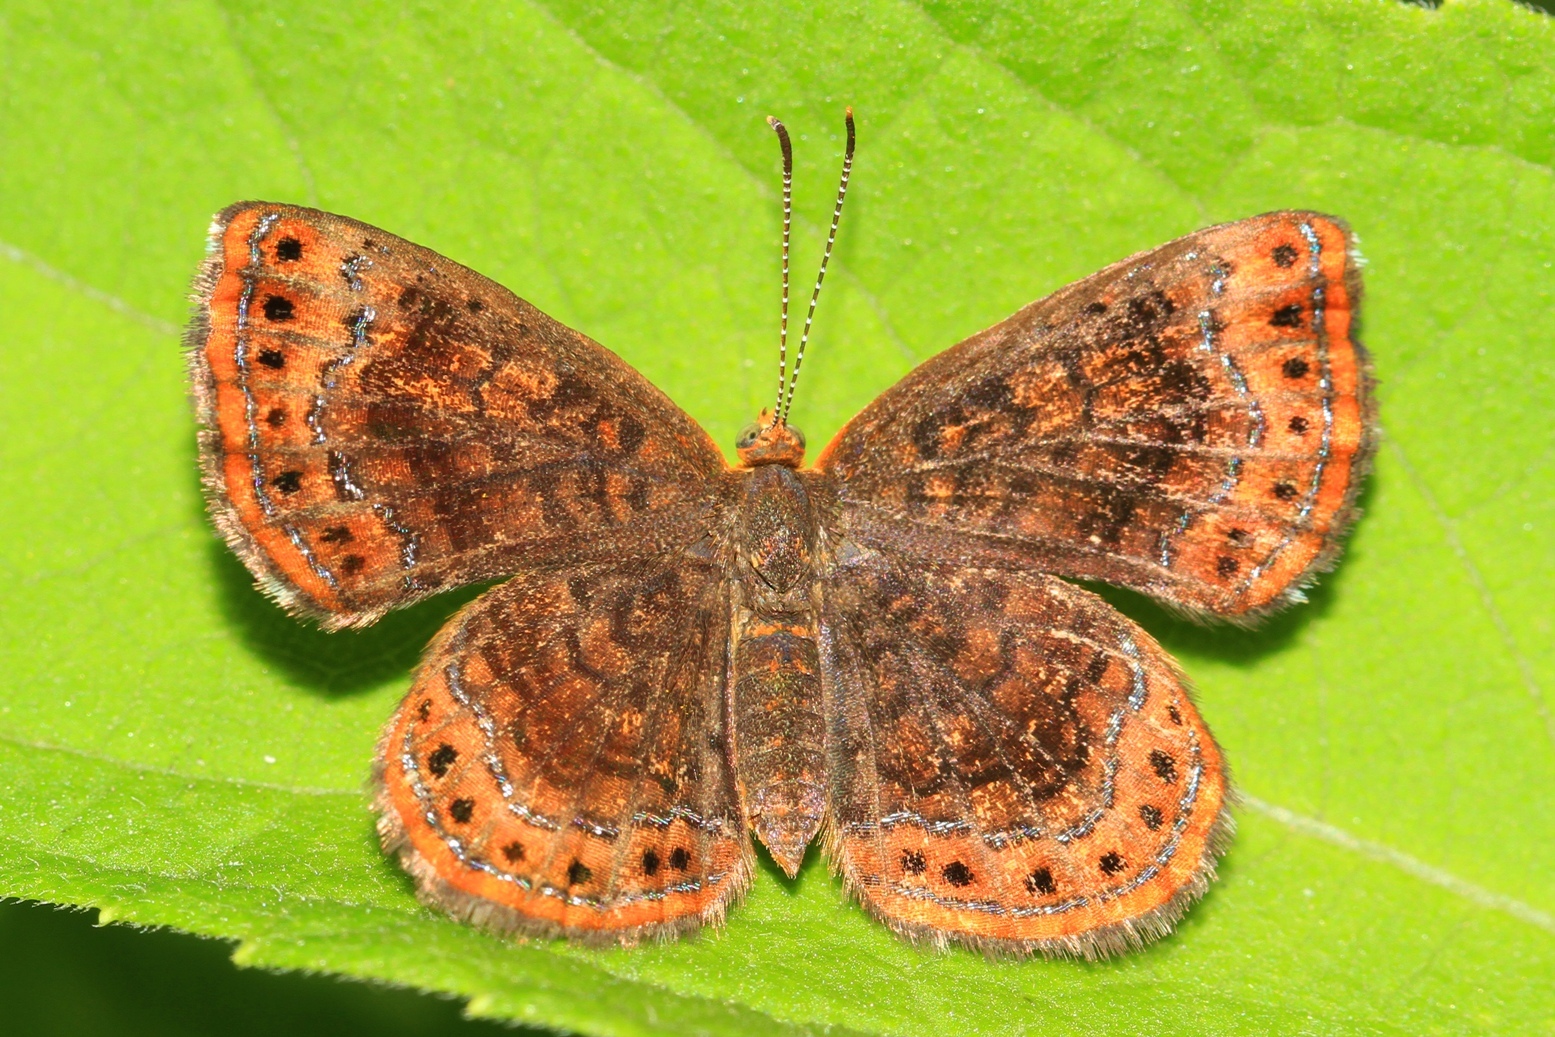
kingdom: Animalia
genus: Calephelis
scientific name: Calephelis borealis
